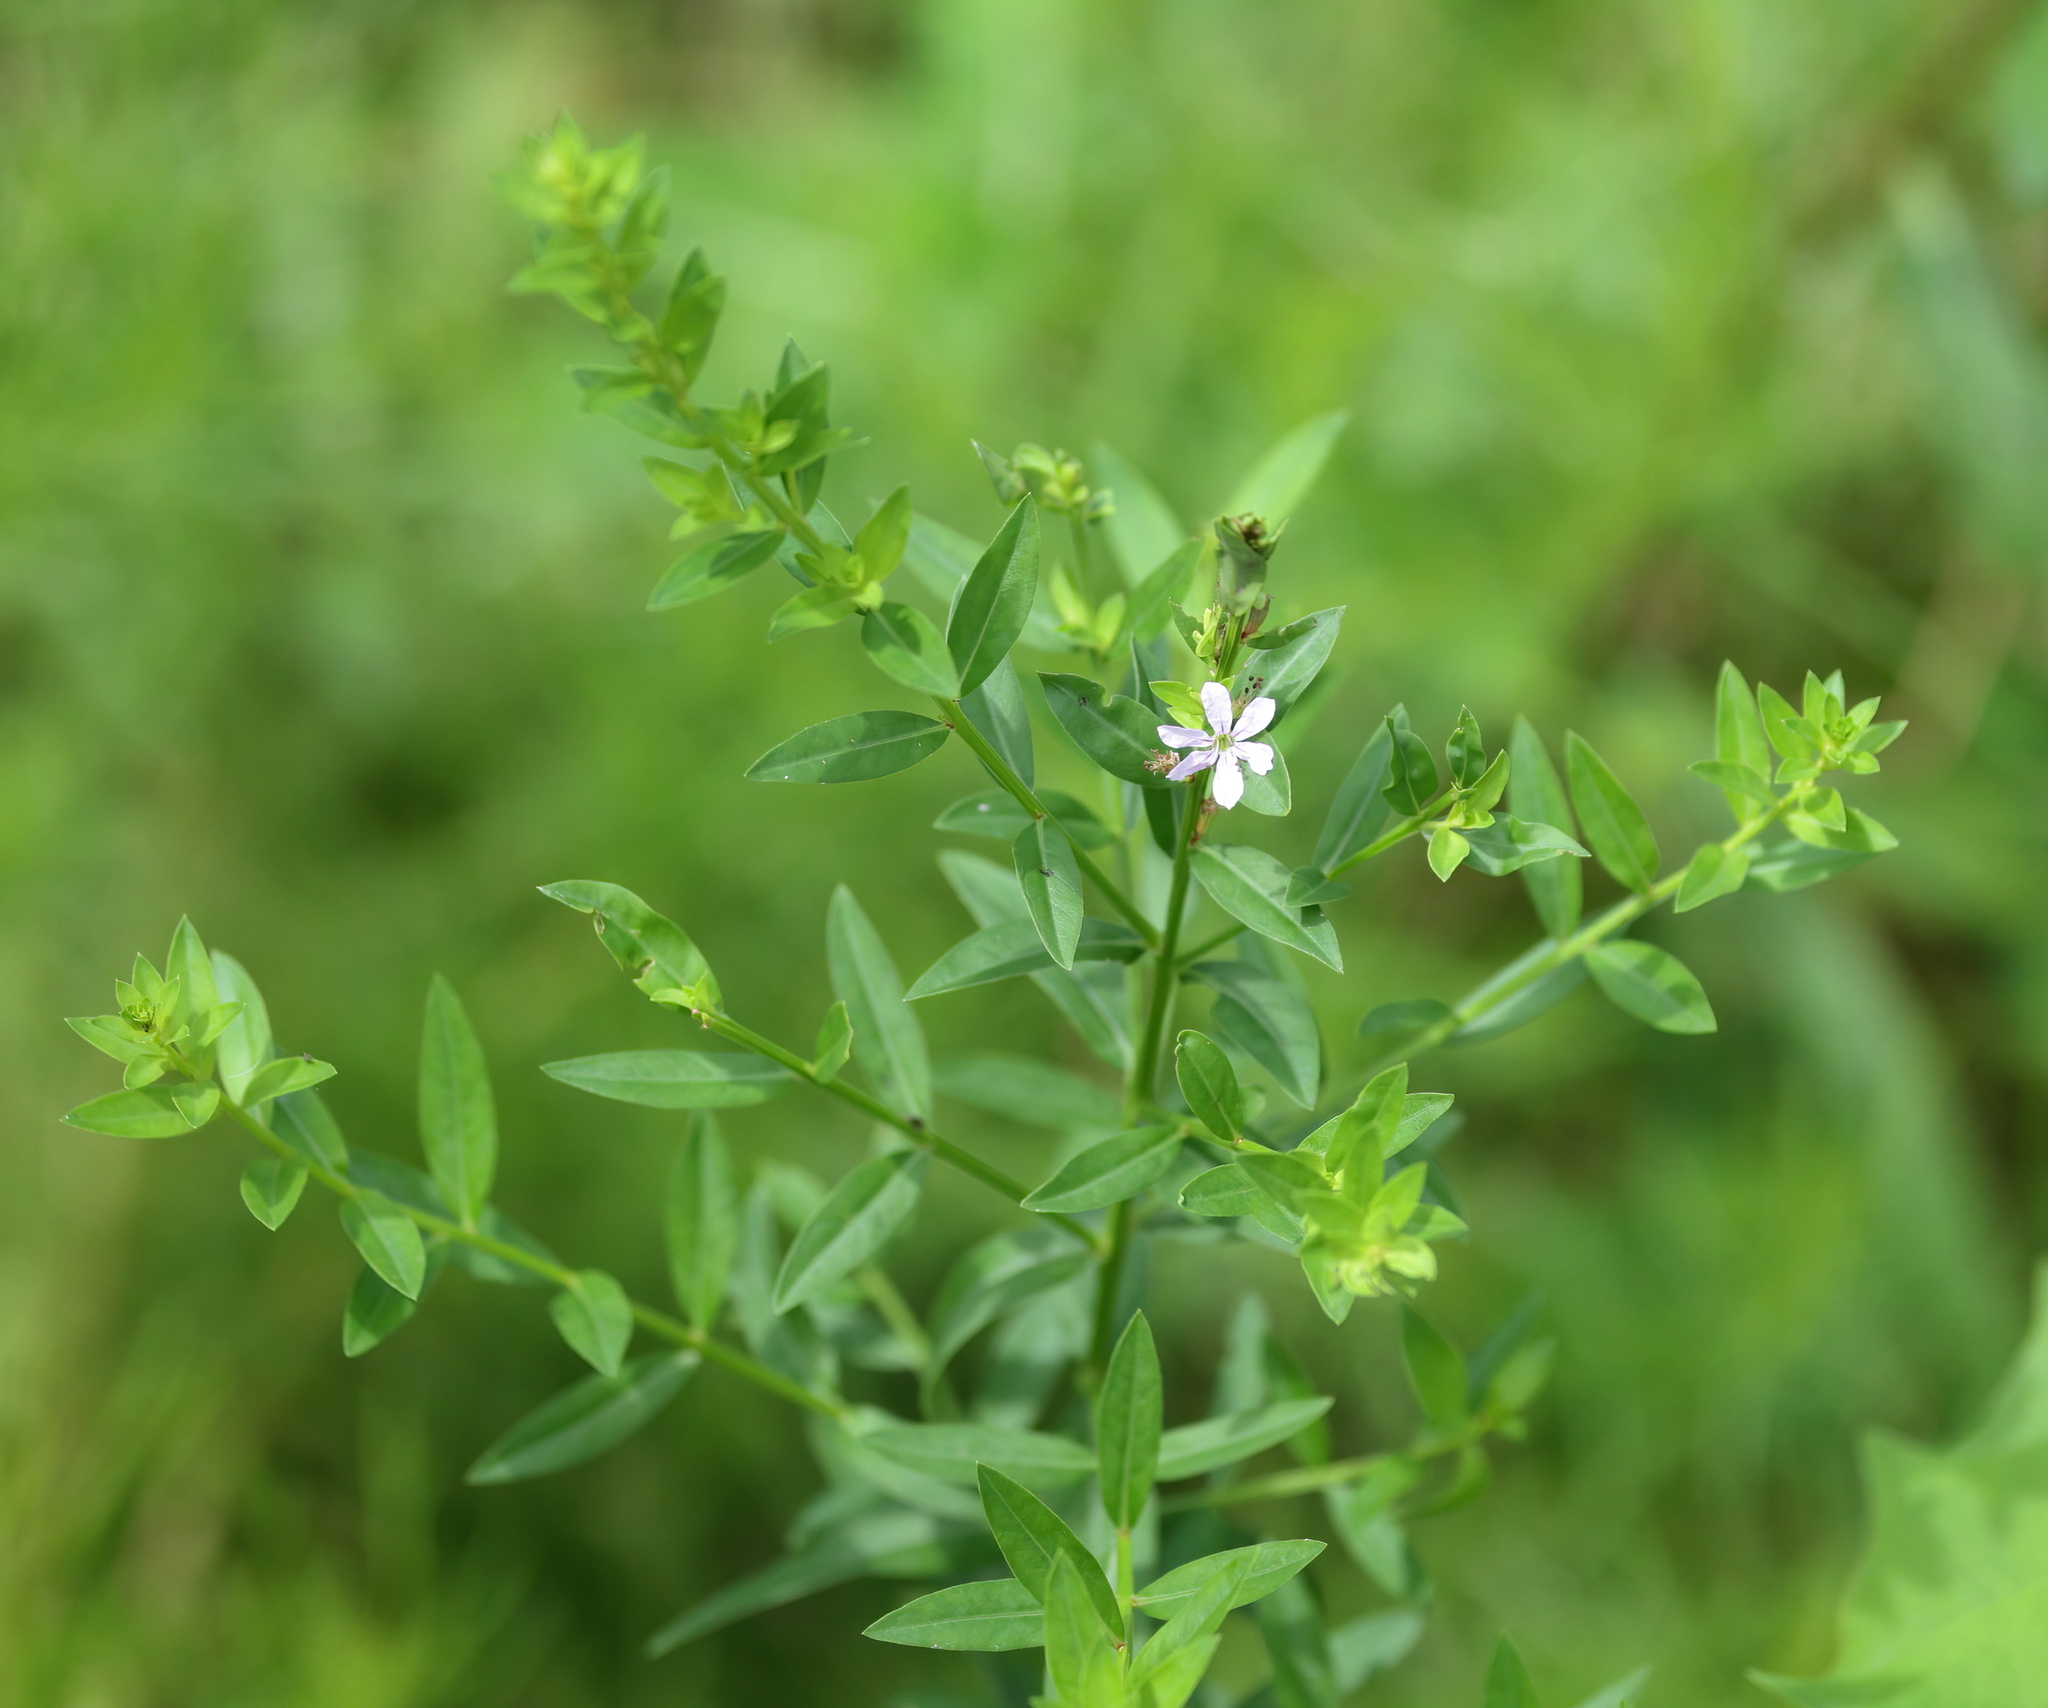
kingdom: Plantae
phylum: Tracheophyta
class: Magnoliopsida
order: Myrtales
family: Lythraceae
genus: Lythrum
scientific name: Lythrum alatum
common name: Winged loosestrife
